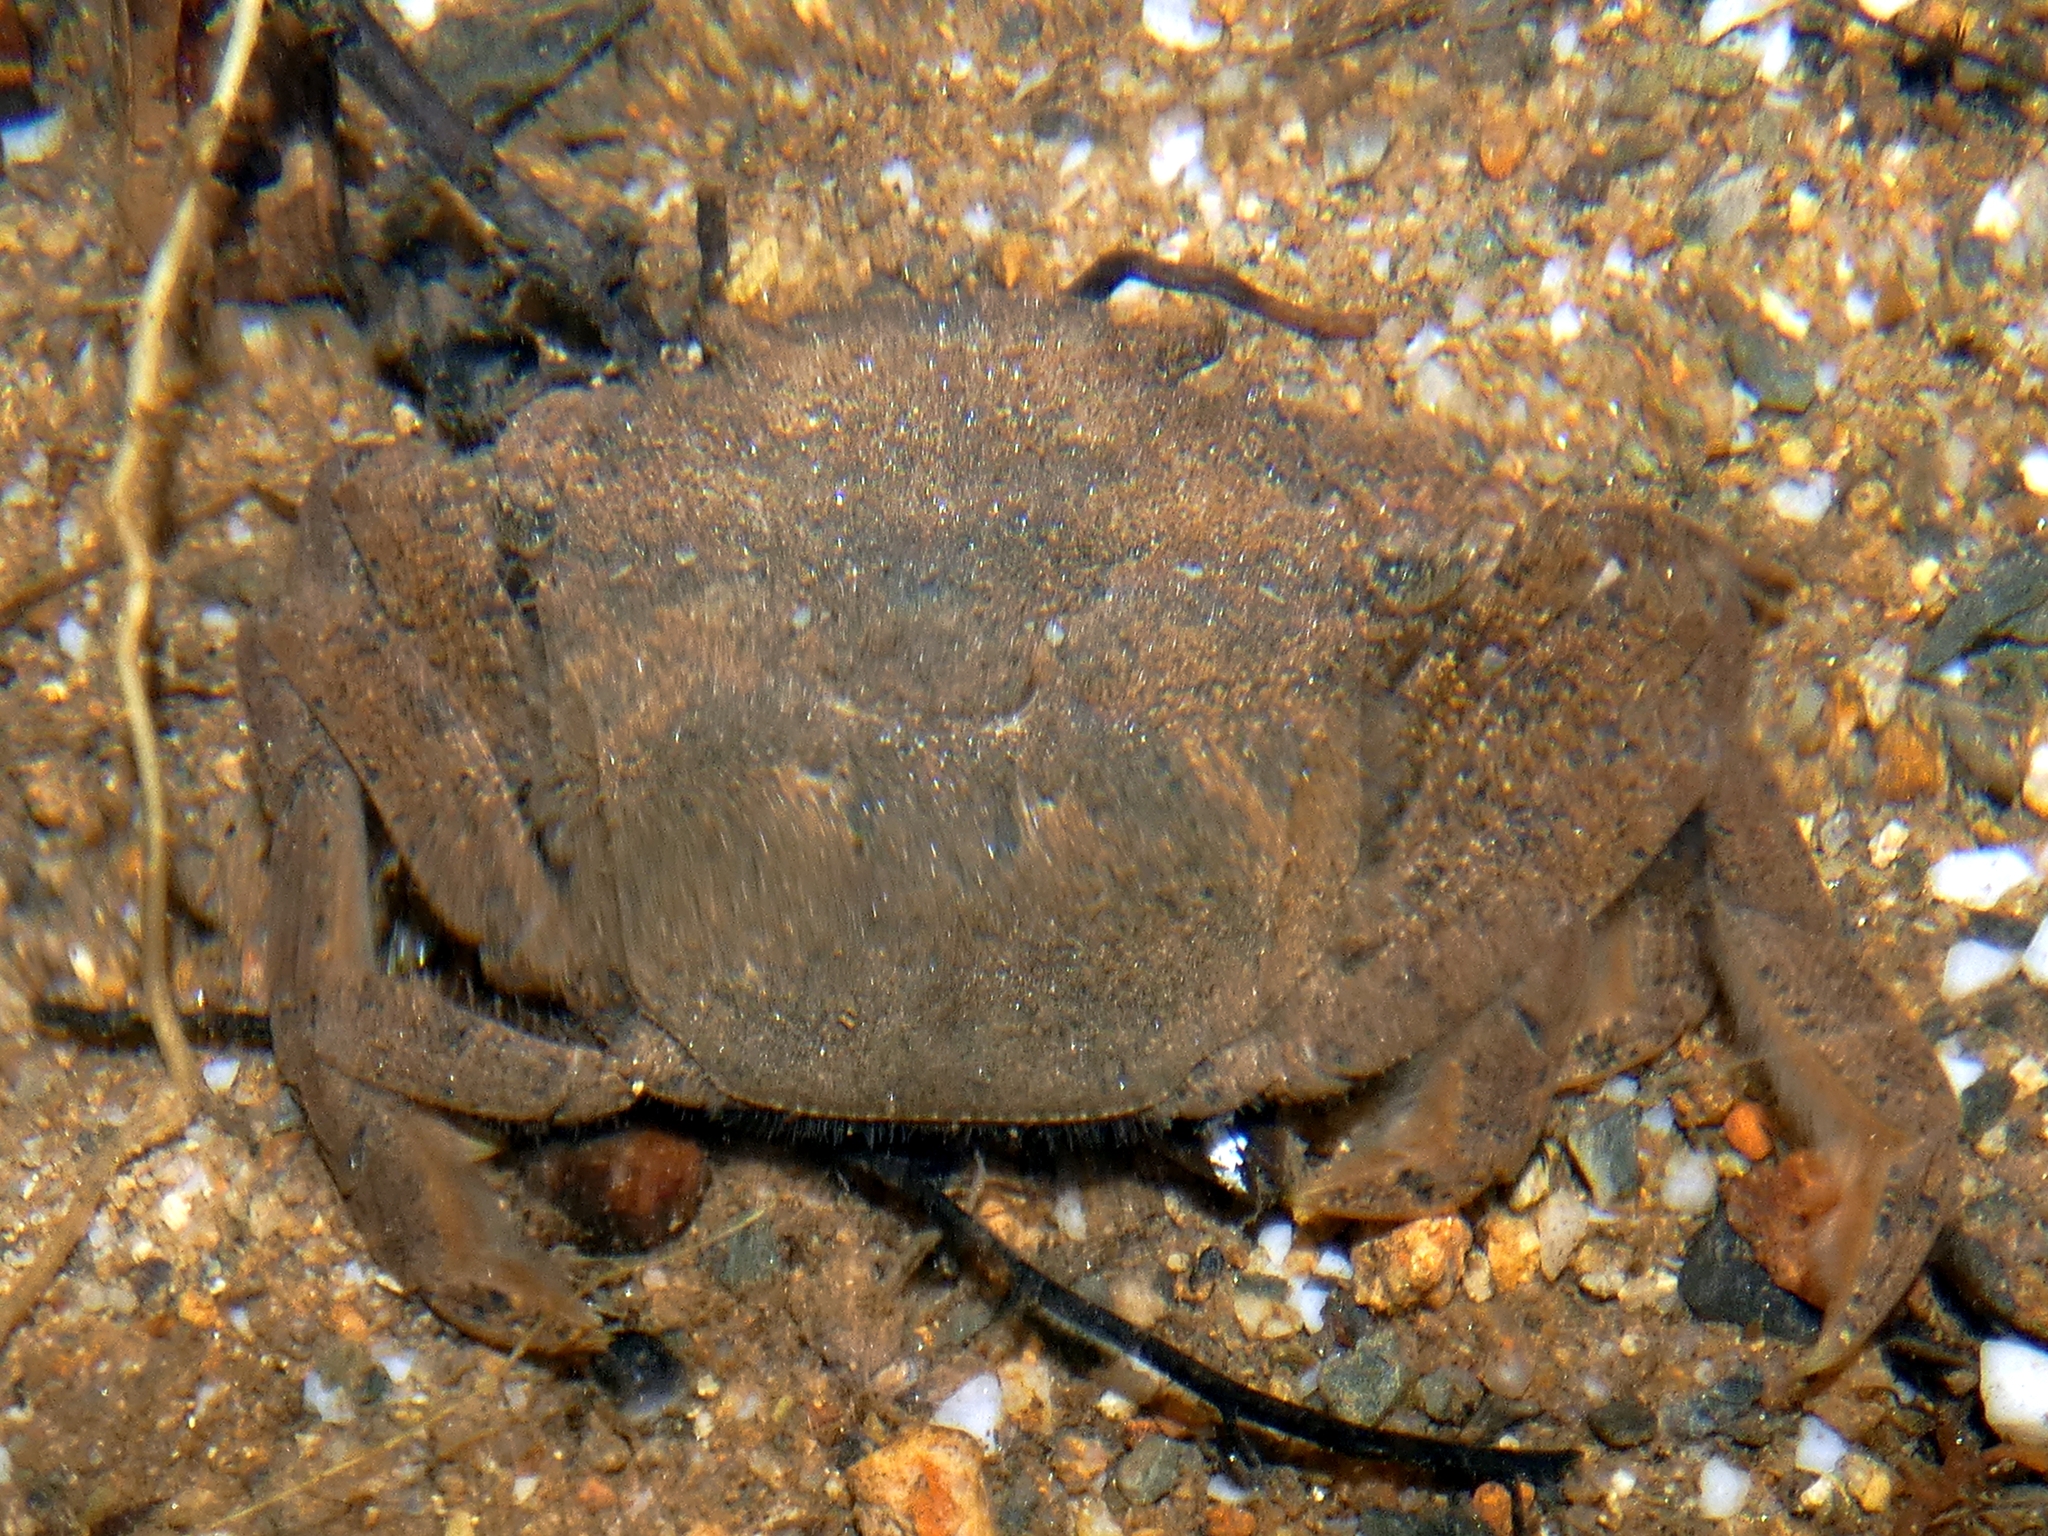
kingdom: Animalia
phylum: Arthropoda
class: Malacostraca
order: Decapoda
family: Varunidae
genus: Varuna
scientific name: Varuna litterata
